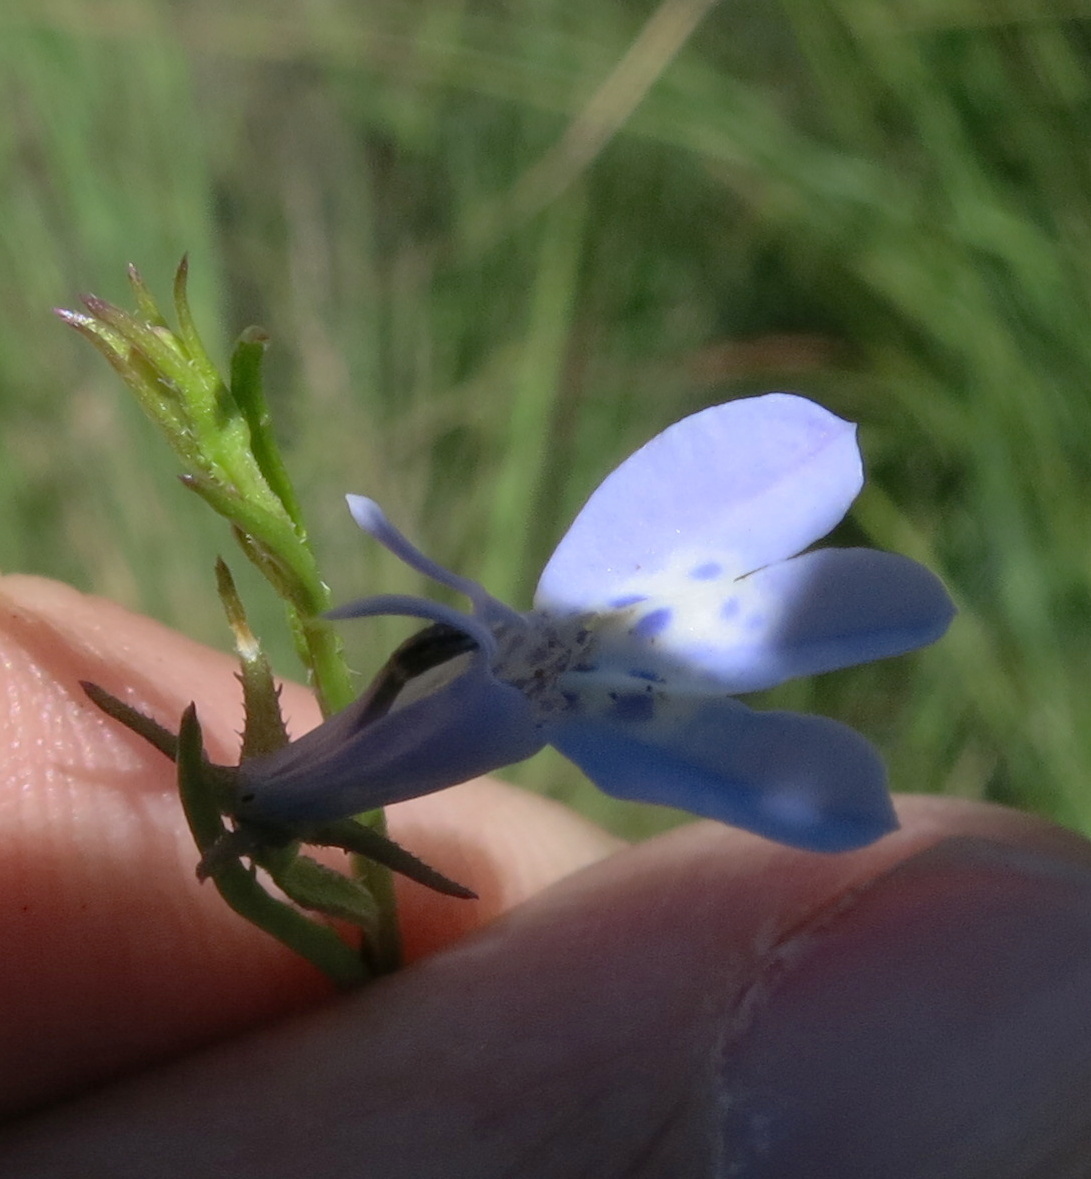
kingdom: Plantae
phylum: Tracheophyta
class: Magnoliopsida
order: Asterales
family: Campanulaceae
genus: Lobelia
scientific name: Lobelia flaccida
